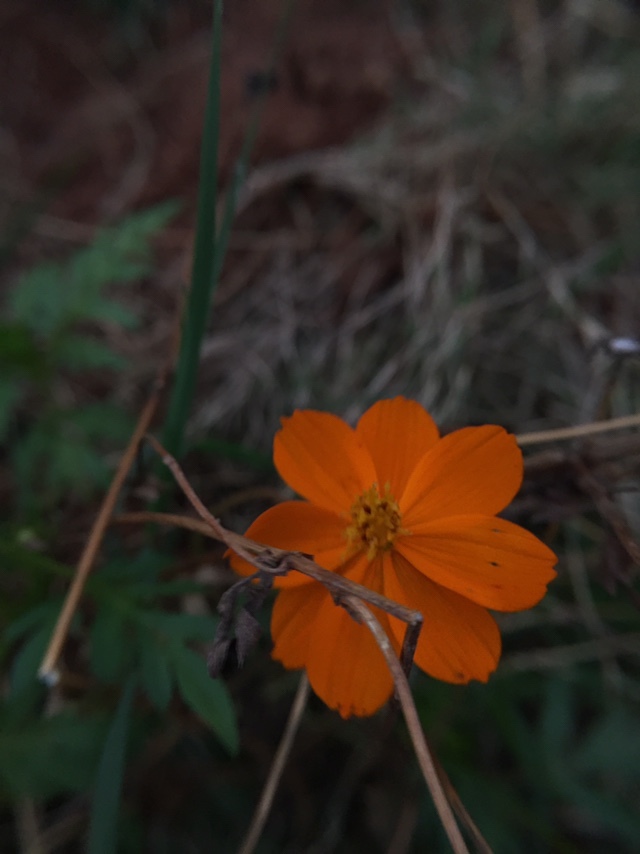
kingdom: Plantae
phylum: Tracheophyta
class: Magnoliopsida
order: Asterales
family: Asteraceae
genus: Cosmos
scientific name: Cosmos sulphureus
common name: Sulphur cosmos
